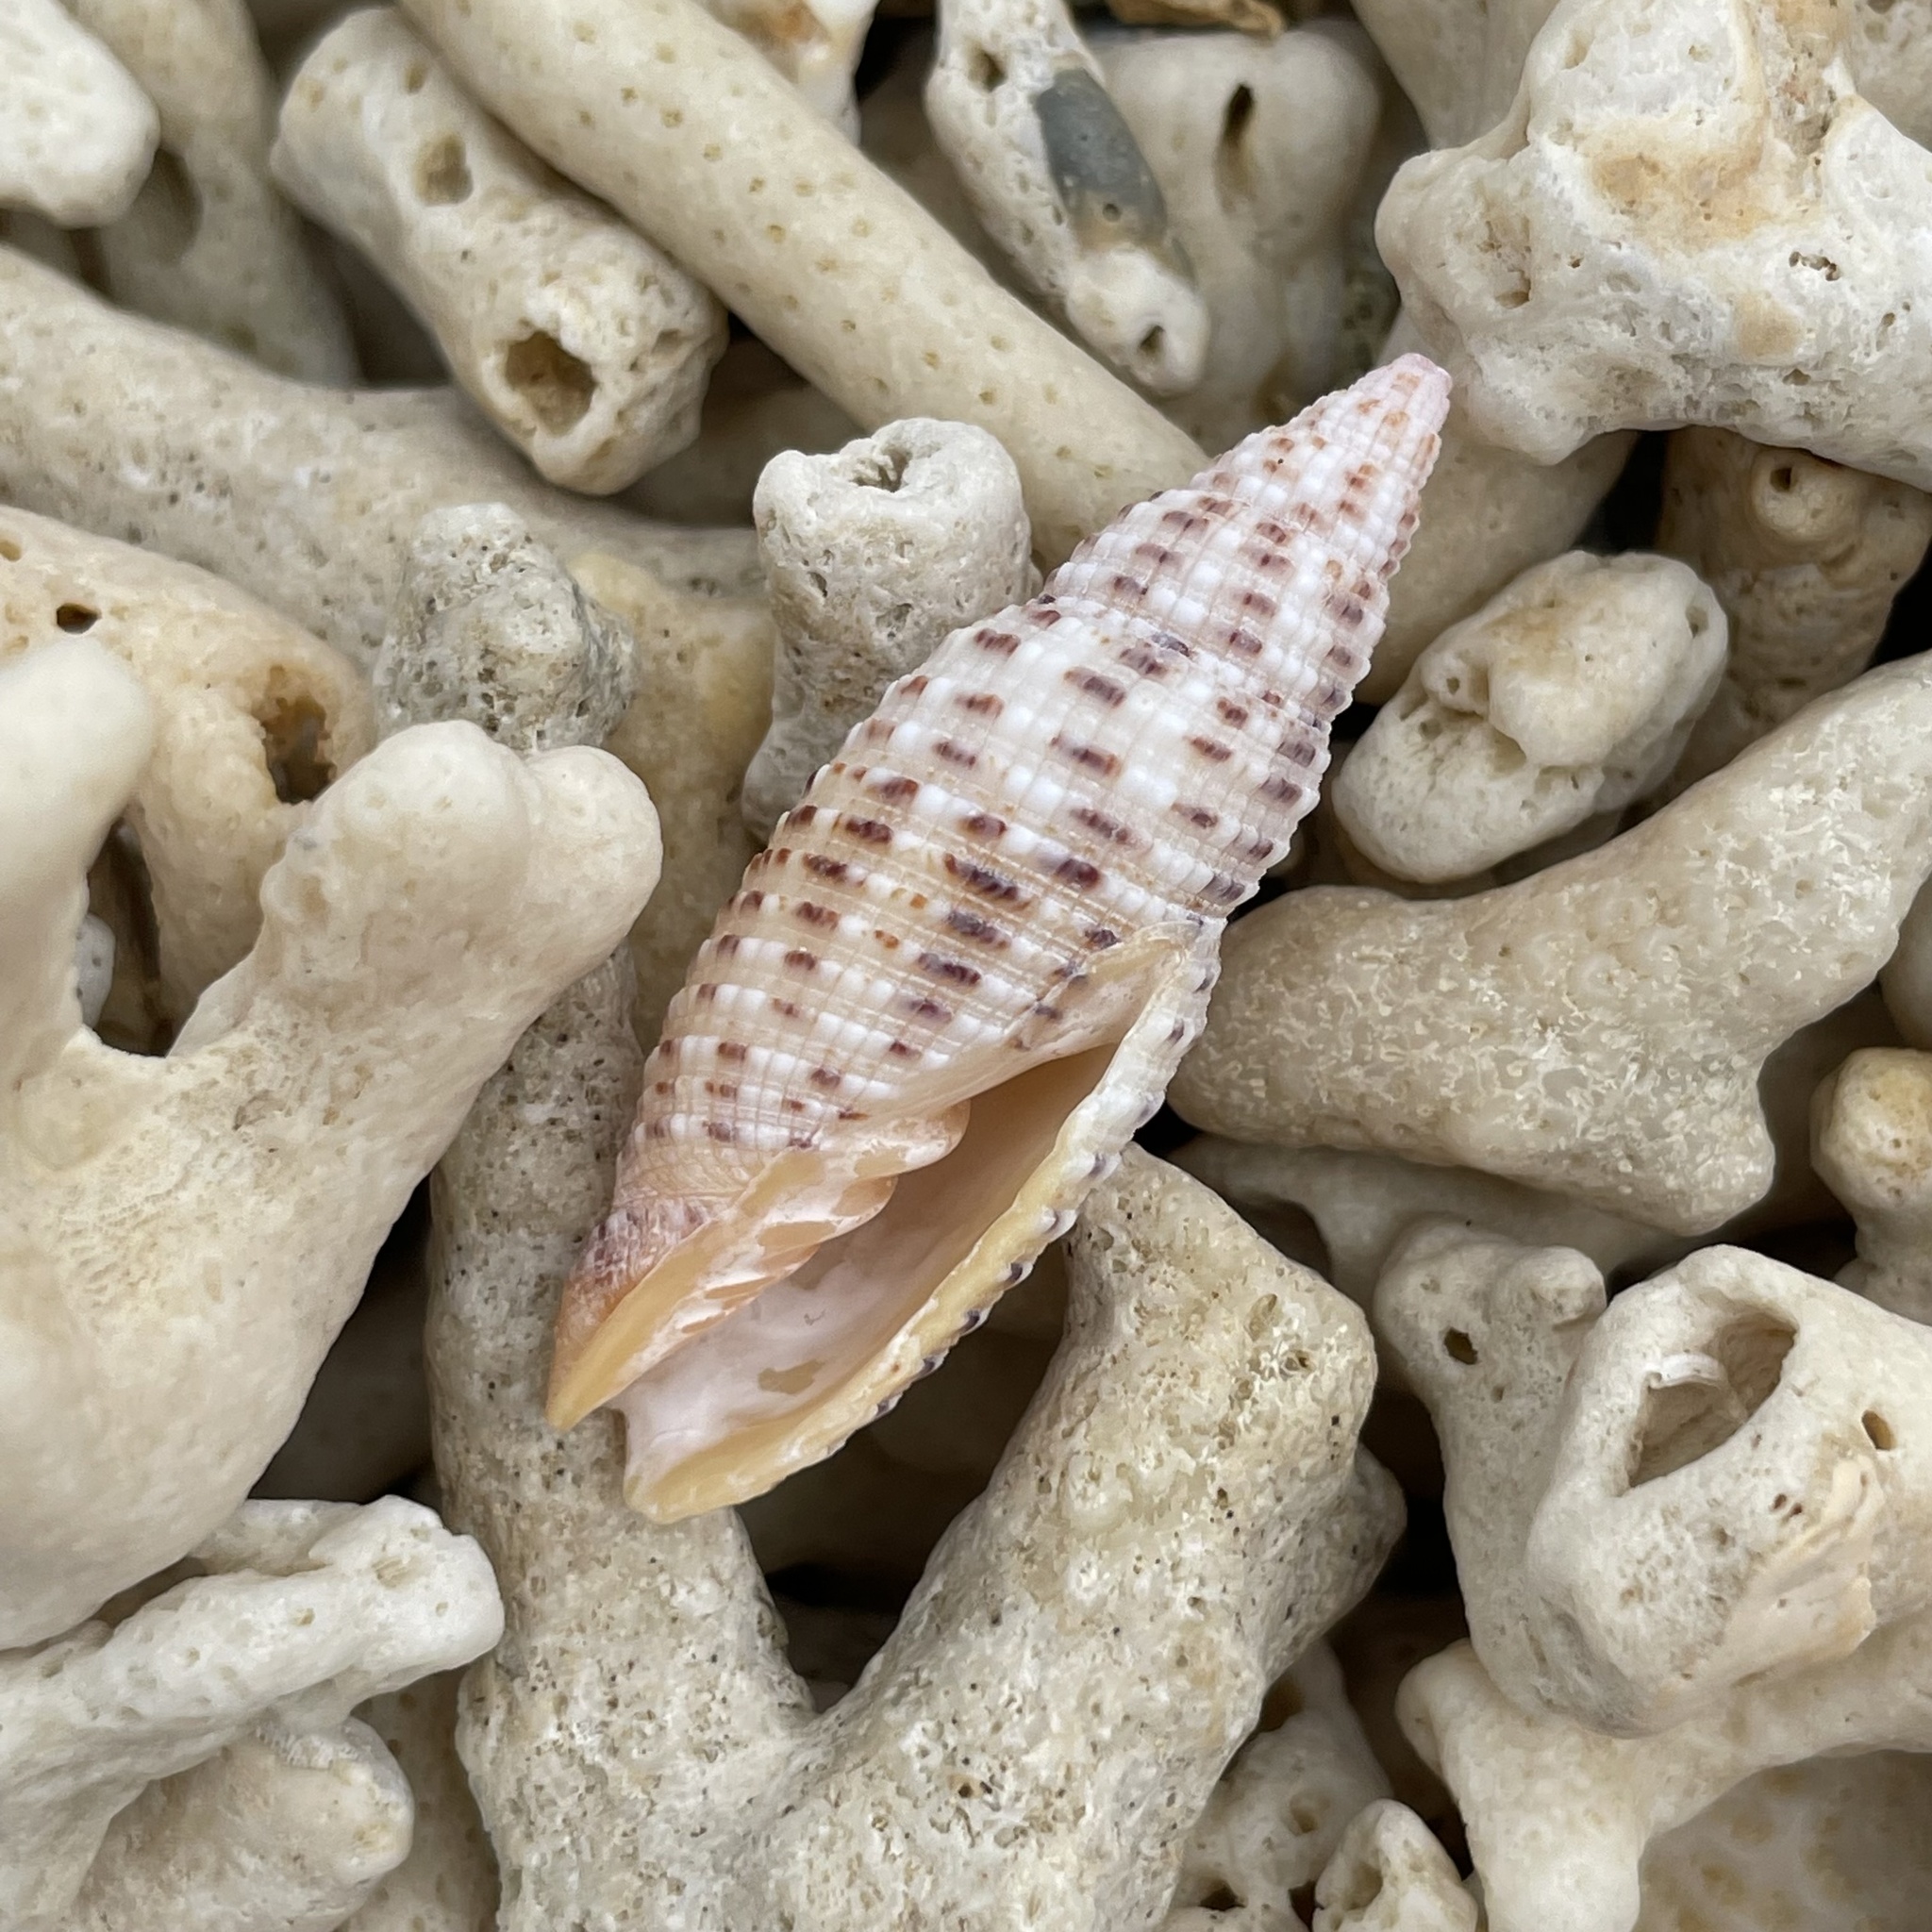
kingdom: Animalia
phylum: Mollusca
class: Gastropoda
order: Neogastropoda
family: Mitridae
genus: Neocancilla
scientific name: Neocancilla papilio
